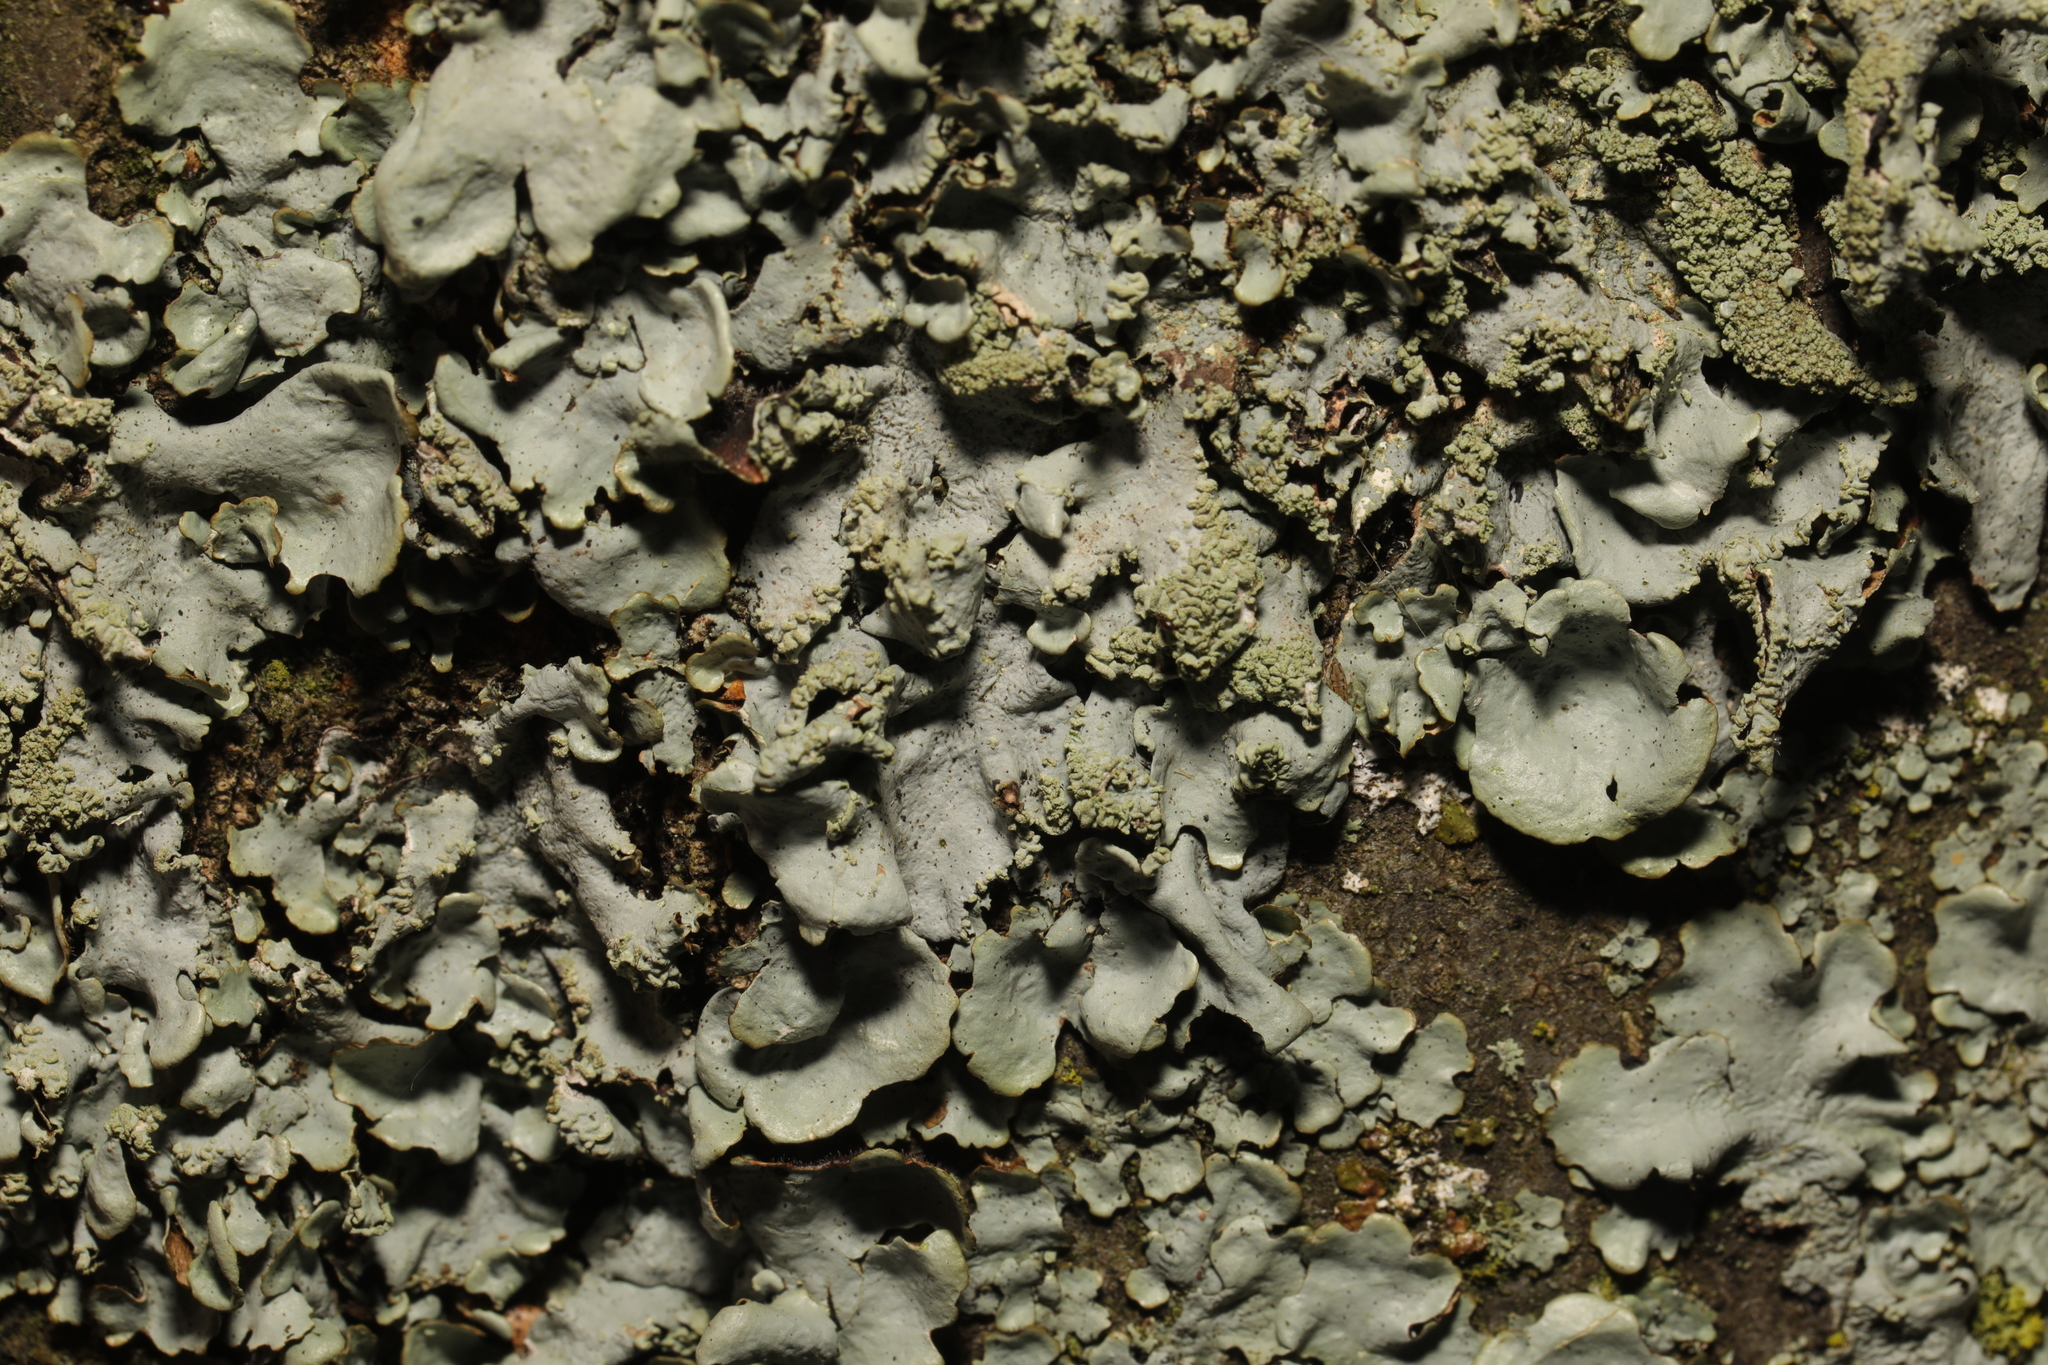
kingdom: Fungi
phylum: Ascomycota
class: Lecanoromycetes
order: Lecanorales
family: Parmeliaceae
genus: Hypotrachyna
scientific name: Hypotrachyna afrorevoluta
